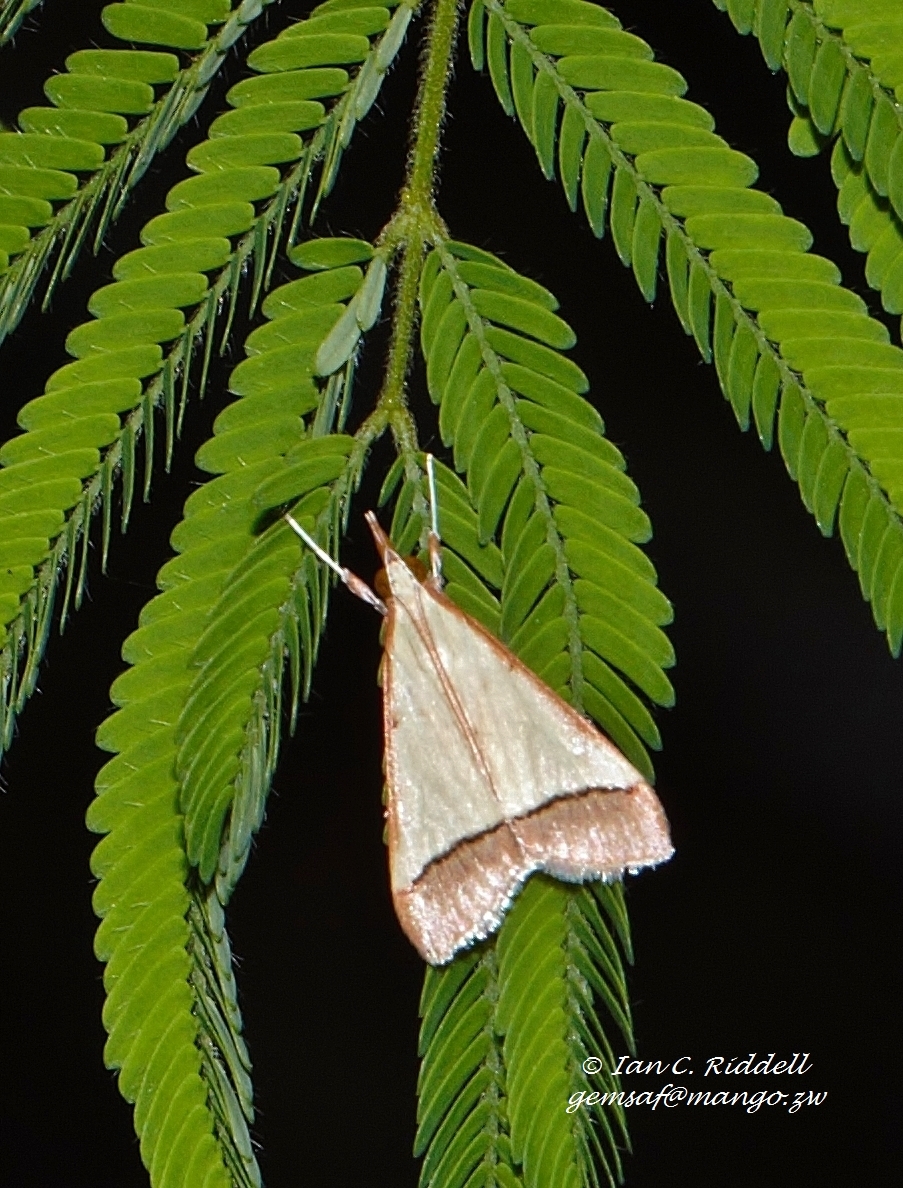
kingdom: Animalia
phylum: Arthropoda
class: Insecta
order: Lepidoptera
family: Crambidae
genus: Autocharis
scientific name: Autocharis fessalis
